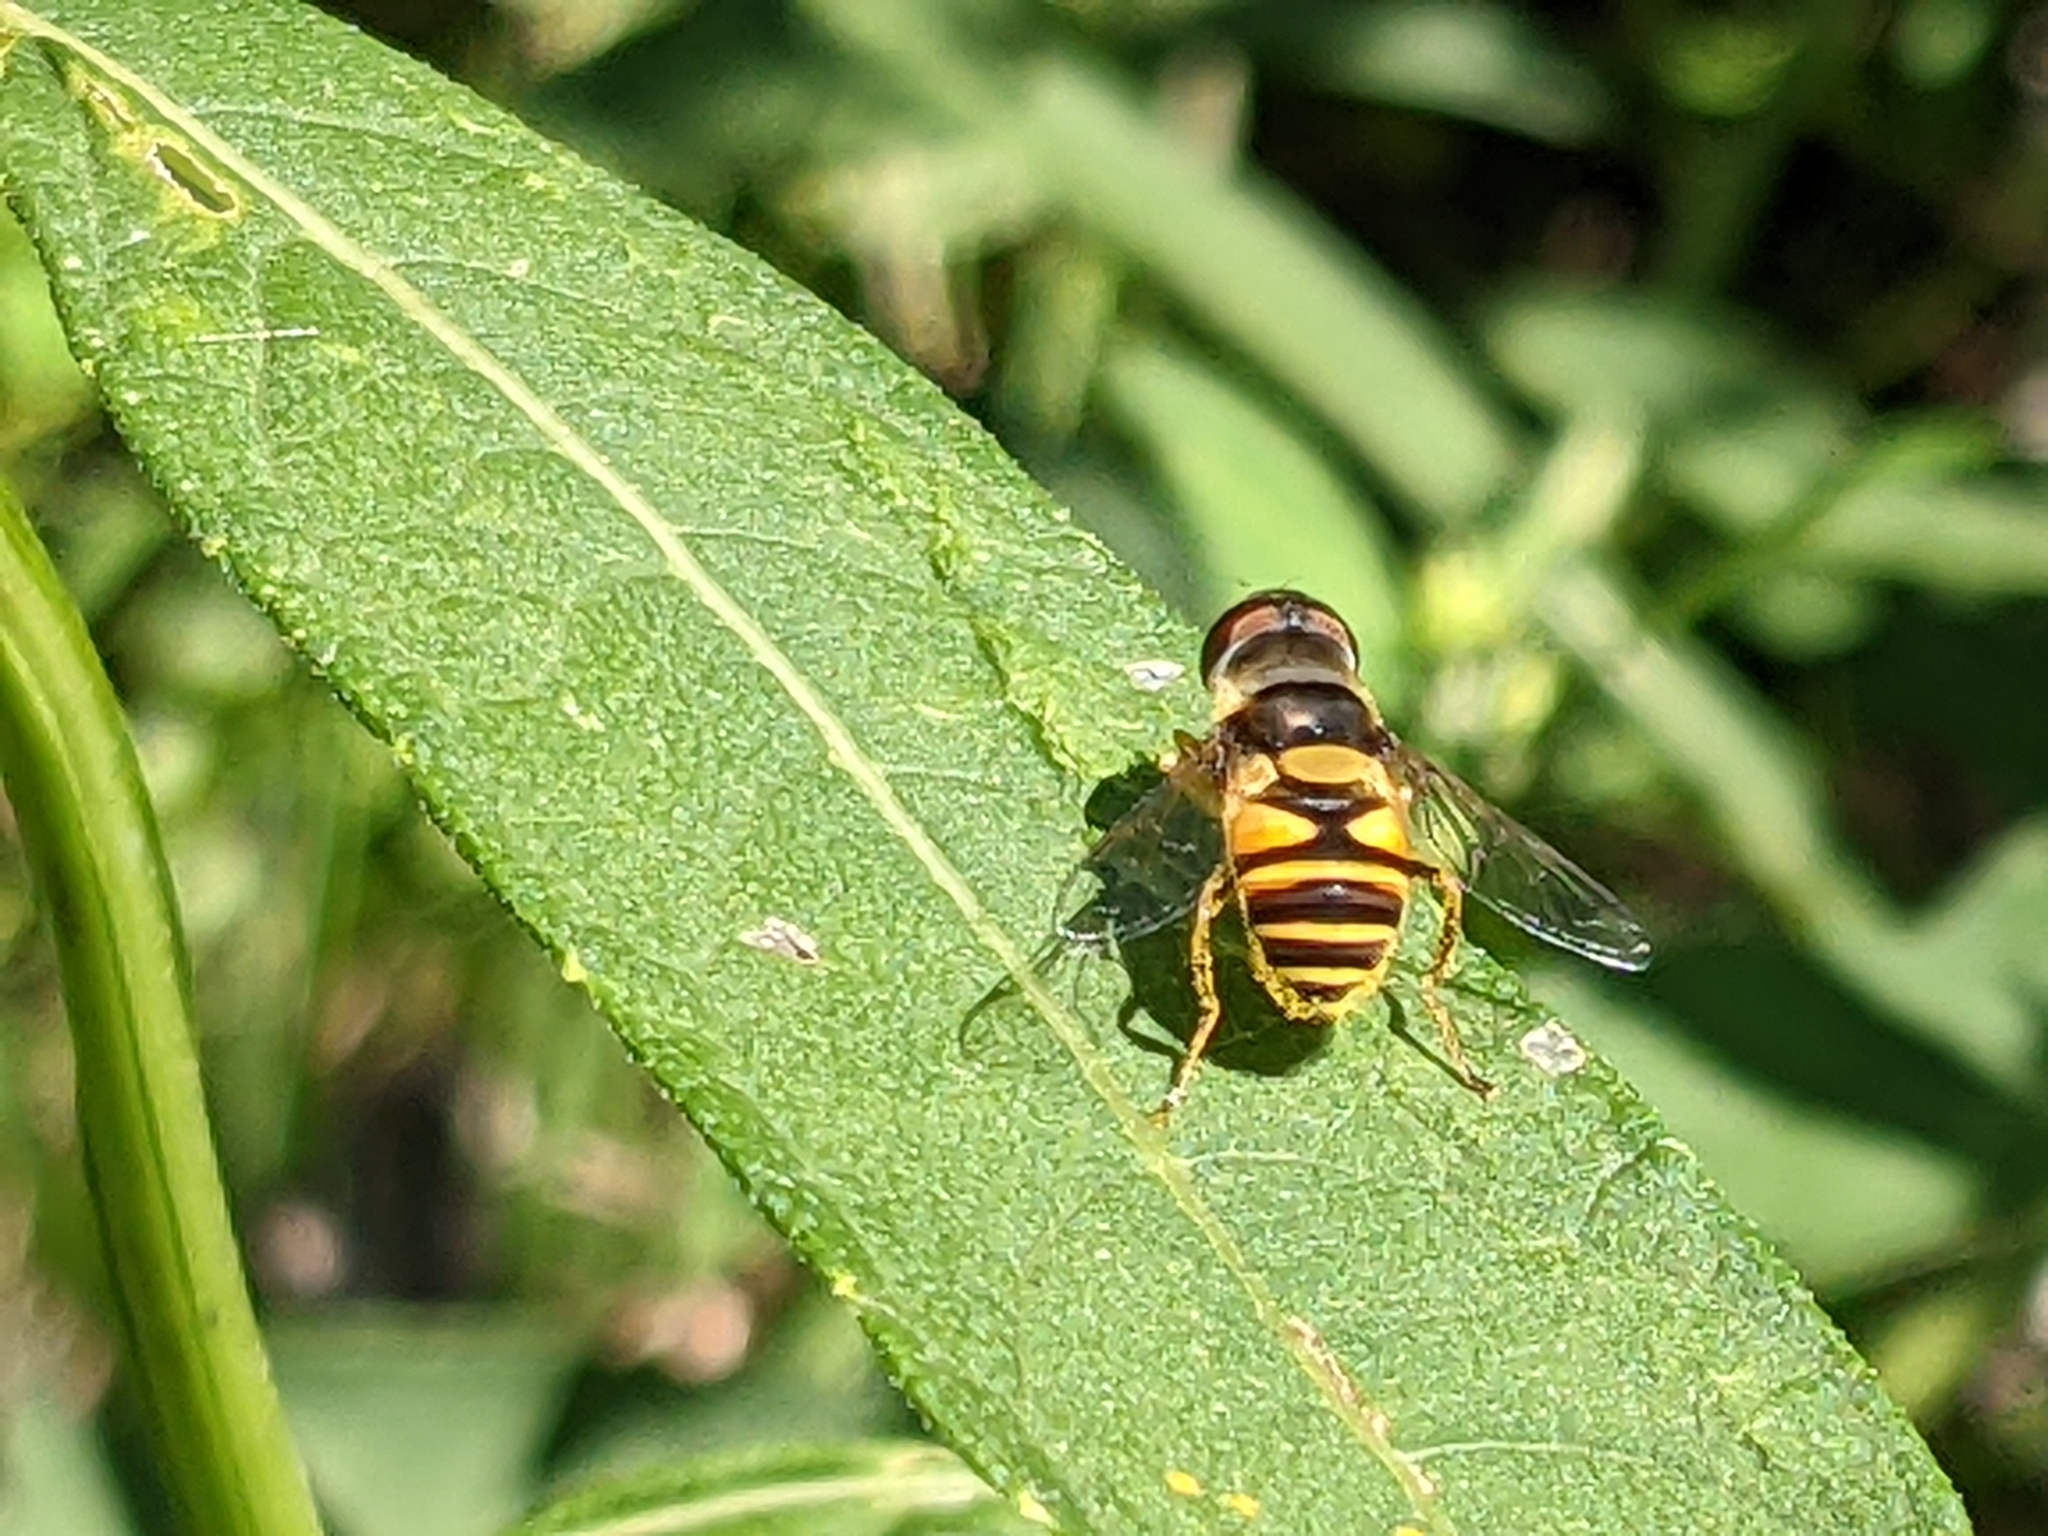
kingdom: Animalia
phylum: Arthropoda
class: Insecta
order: Diptera
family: Syrphidae
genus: Eristalis
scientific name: Eristalis transversa
